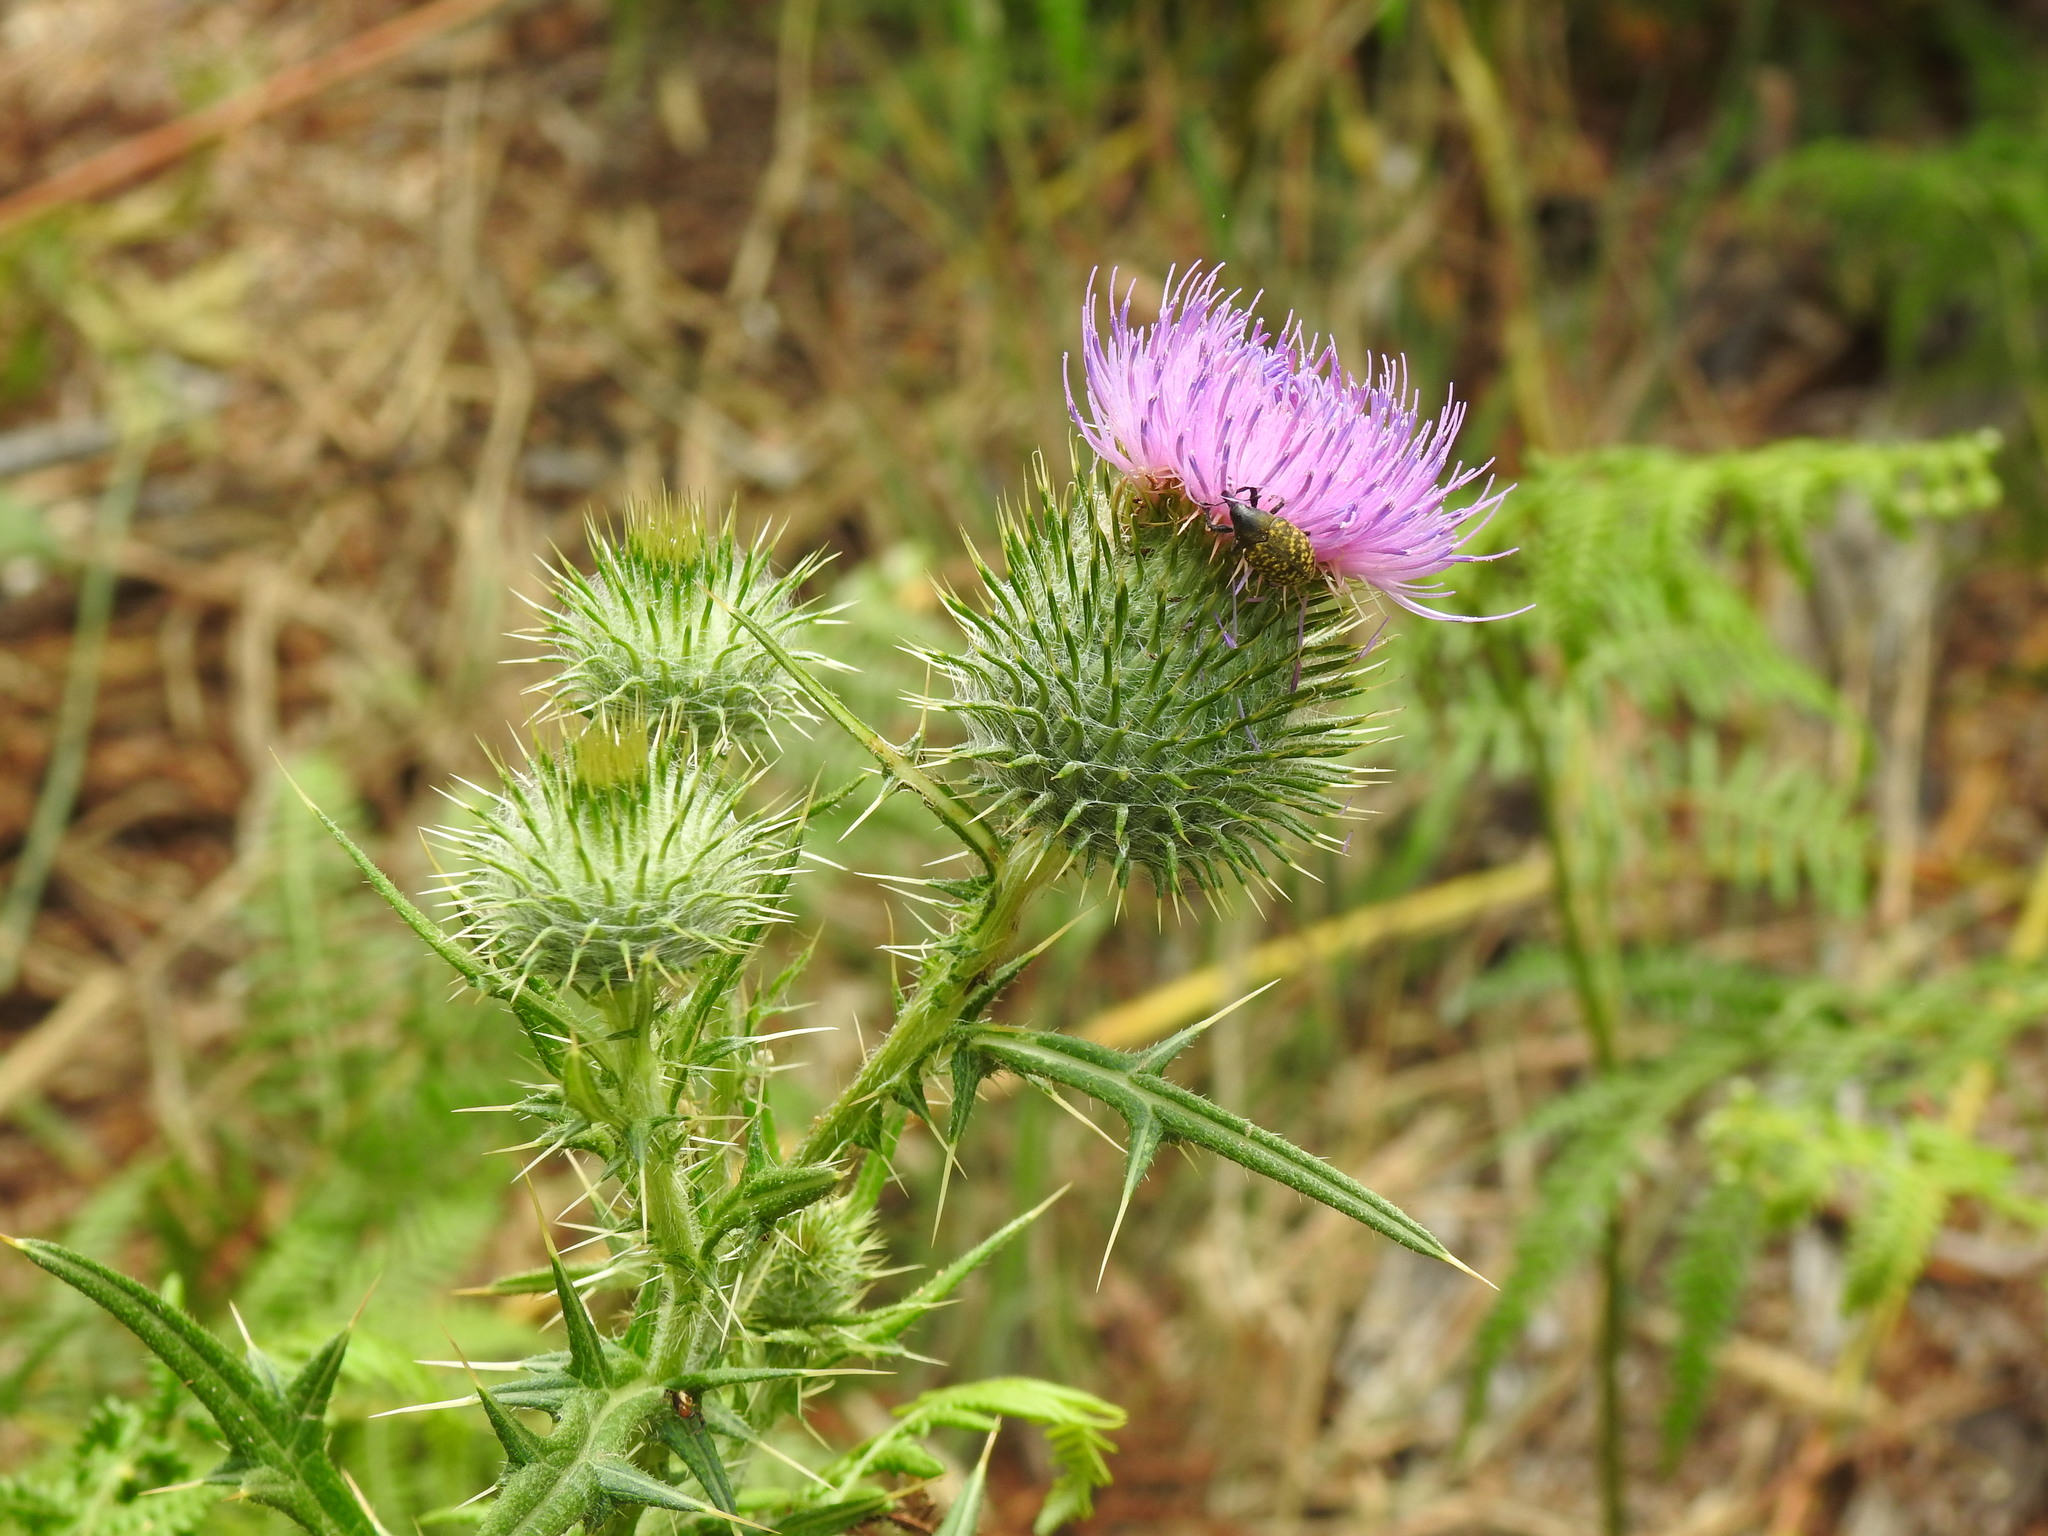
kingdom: Plantae
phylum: Tracheophyta
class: Magnoliopsida
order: Asterales
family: Asteraceae
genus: Cirsium
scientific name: Cirsium vulgare
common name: Bull thistle
